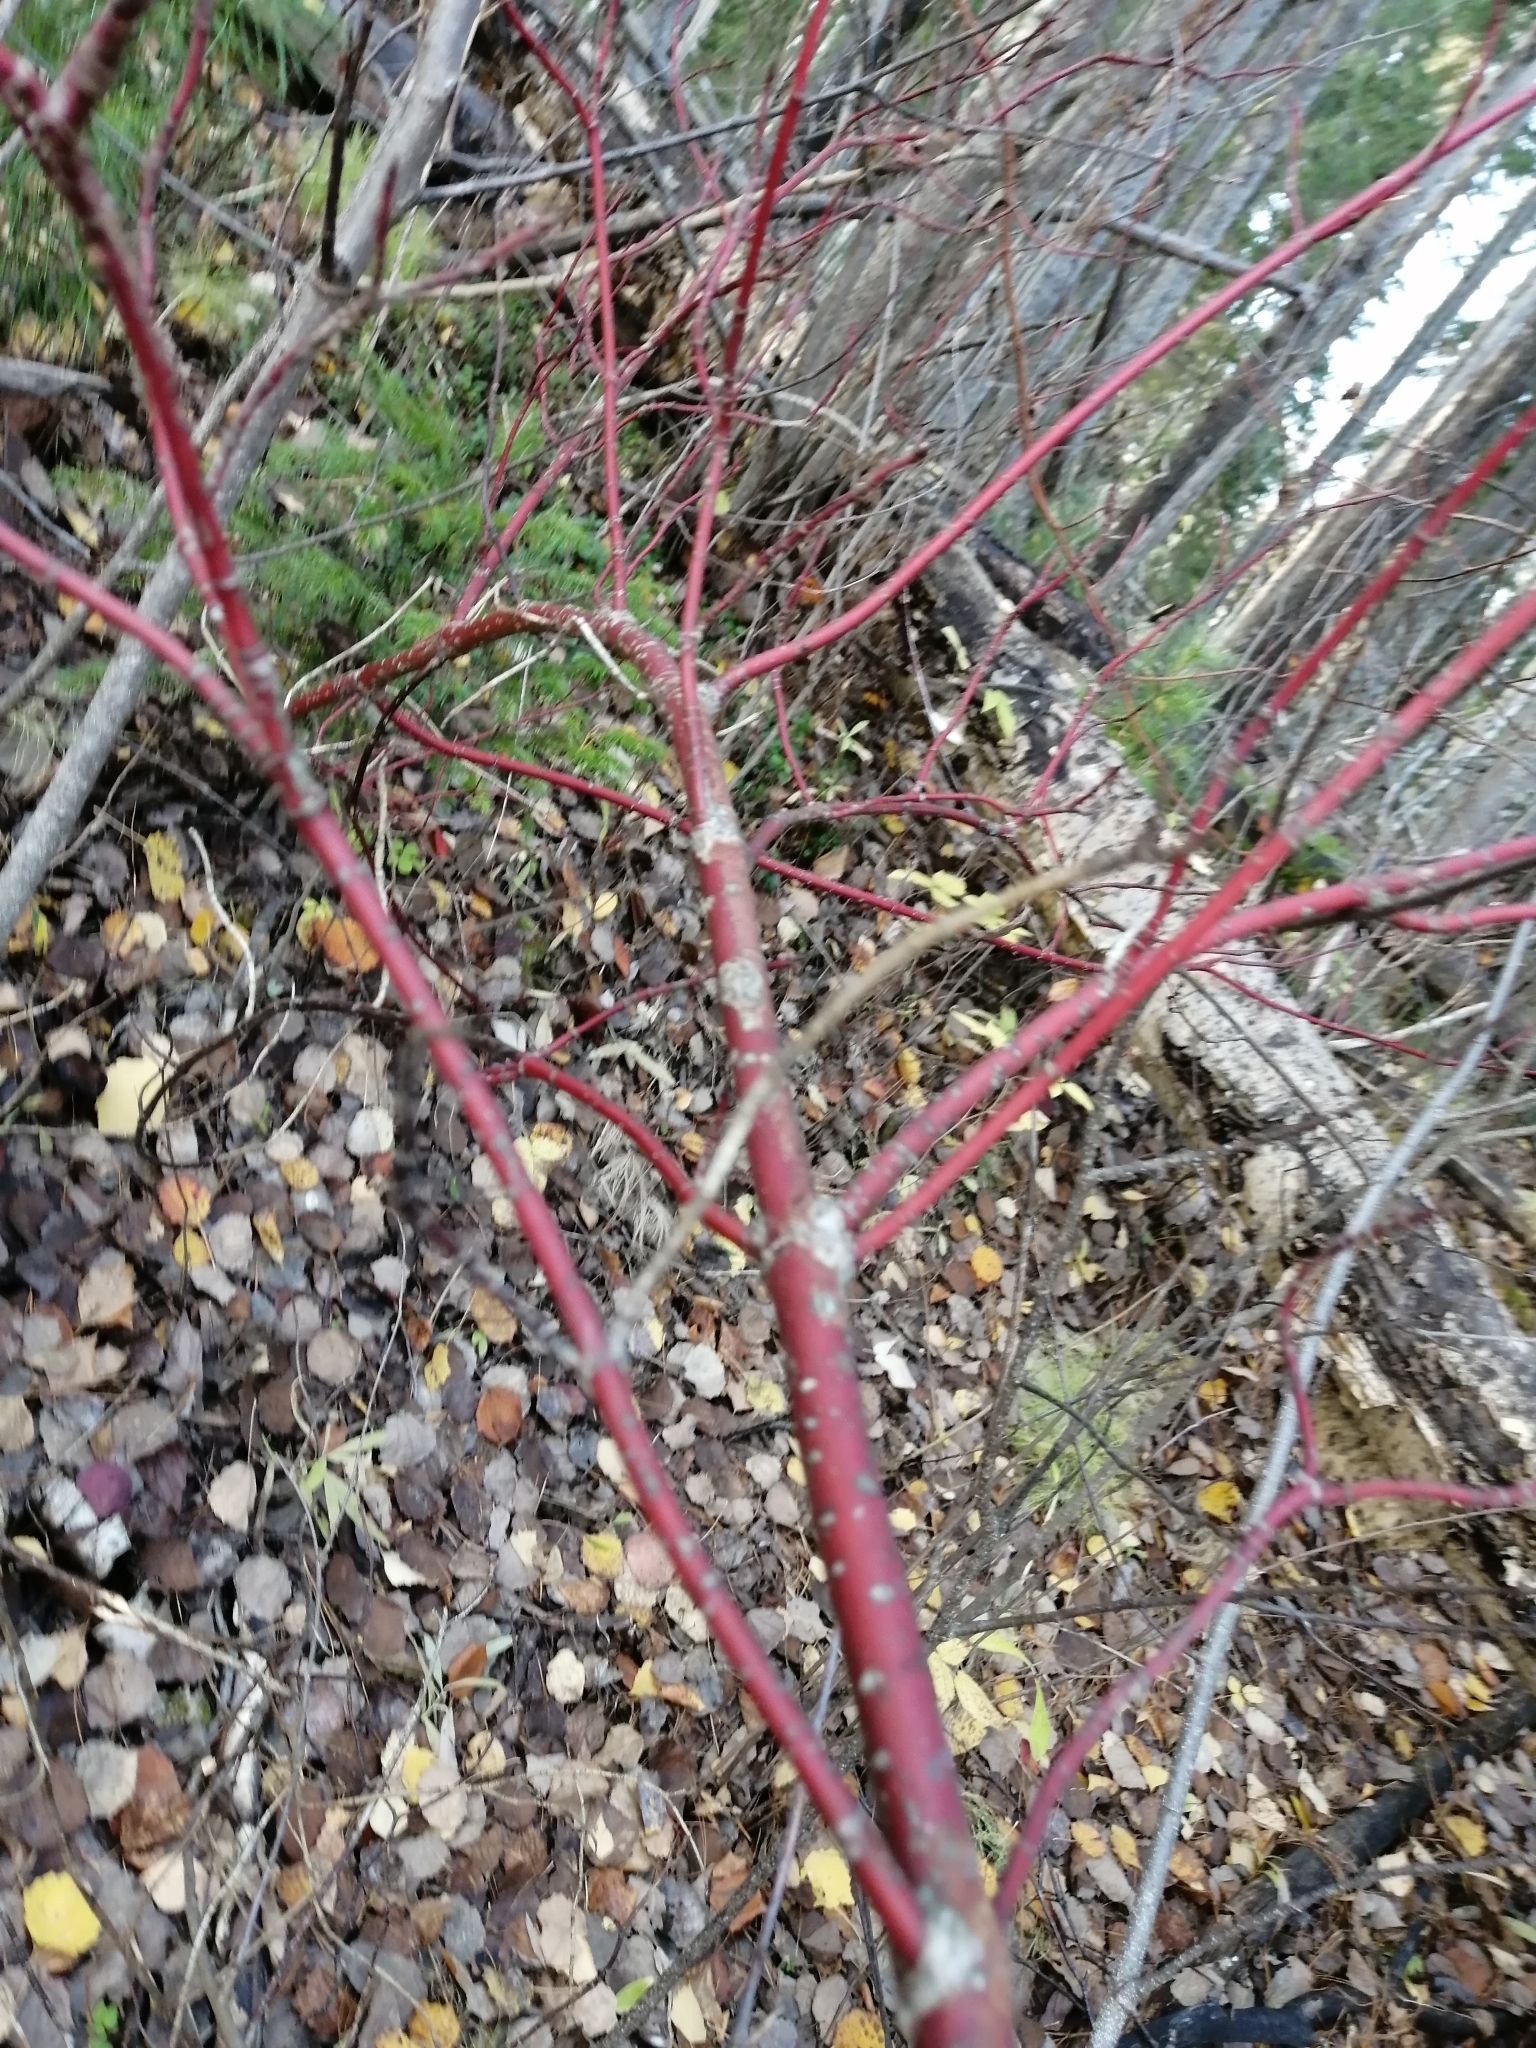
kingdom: Plantae
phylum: Tracheophyta
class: Magnoliopsida
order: Cornales
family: Cornaceae
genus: Cornus
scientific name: Cornus alba
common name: White dogwood
